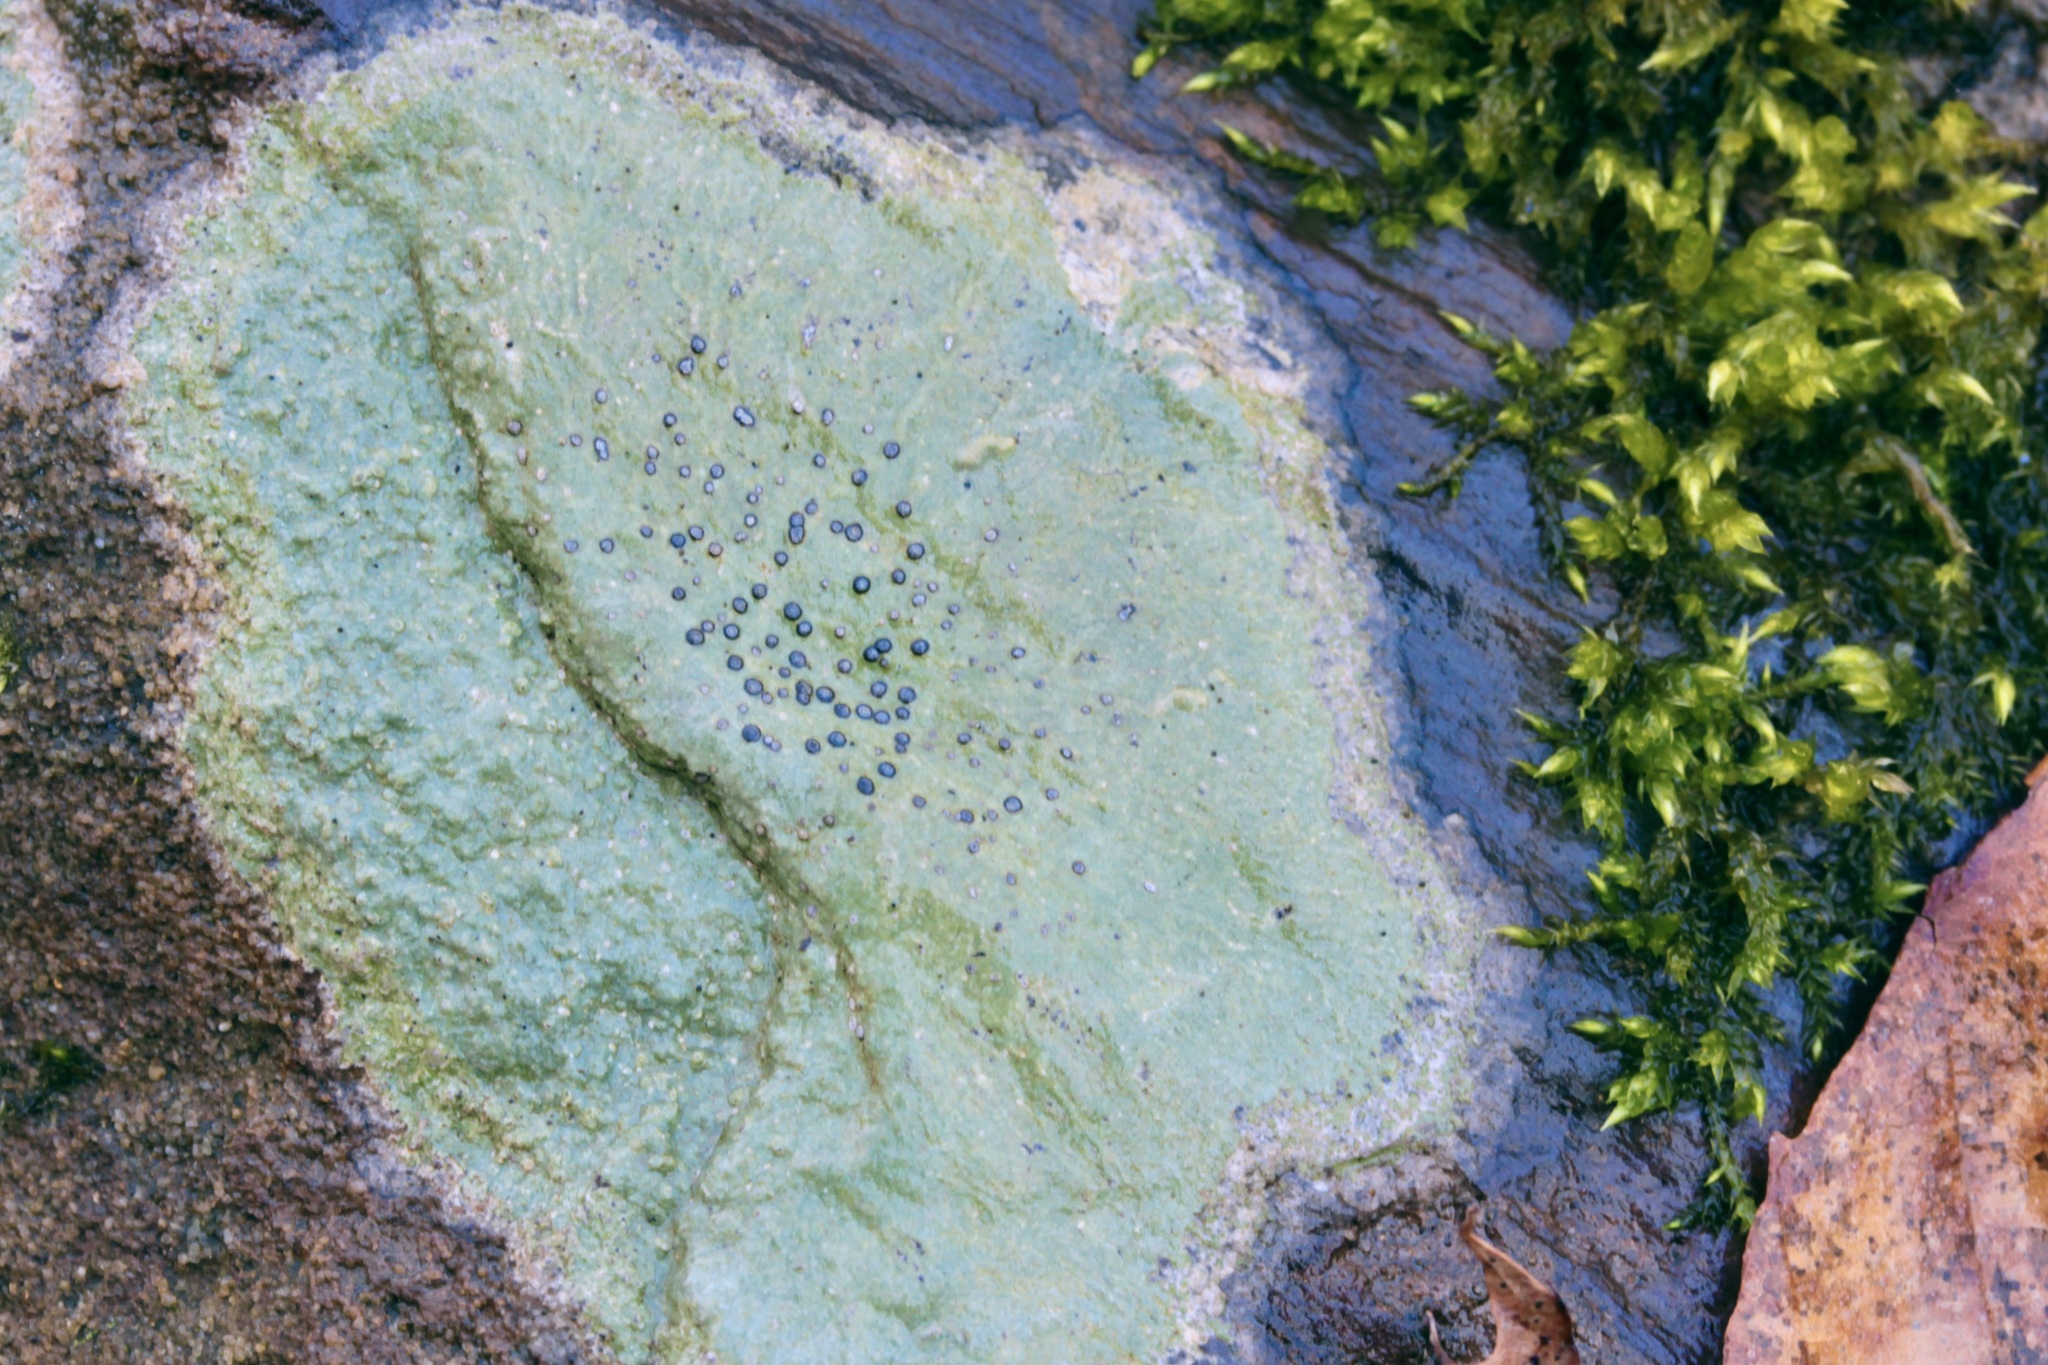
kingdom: Fungi
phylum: Ascomycota
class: Lecanoromycetes
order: Lecideales
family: Lecideaceae
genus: Porpidia
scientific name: Porpidia albocaerulescens
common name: Smokey-eyed boulder lichen
